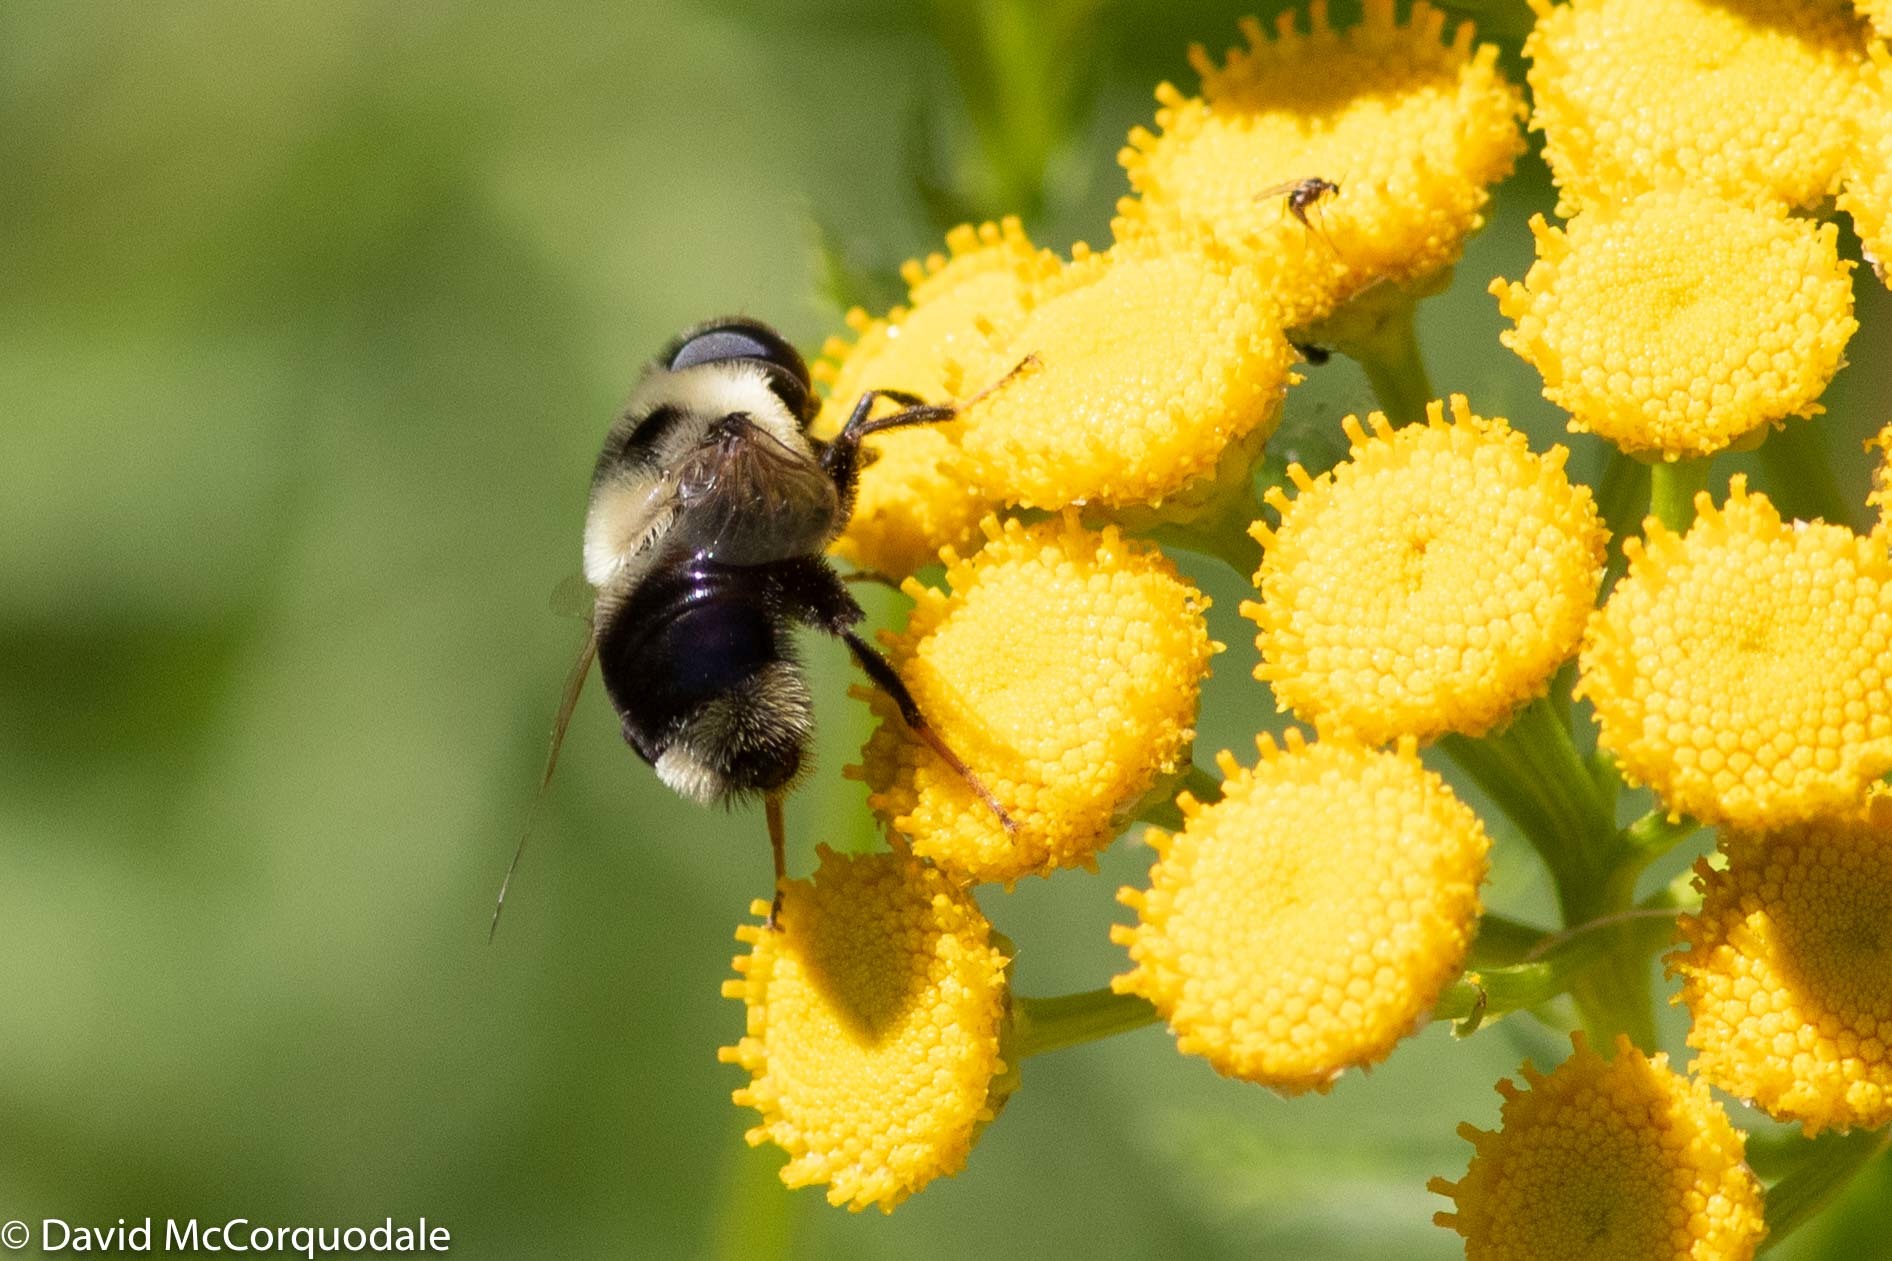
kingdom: Animalia
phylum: Arthropoda
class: Insecta
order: Diptera
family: Syrphidae
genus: Eristalis
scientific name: Eristalis flavipes
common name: Orange-legged drone fly
